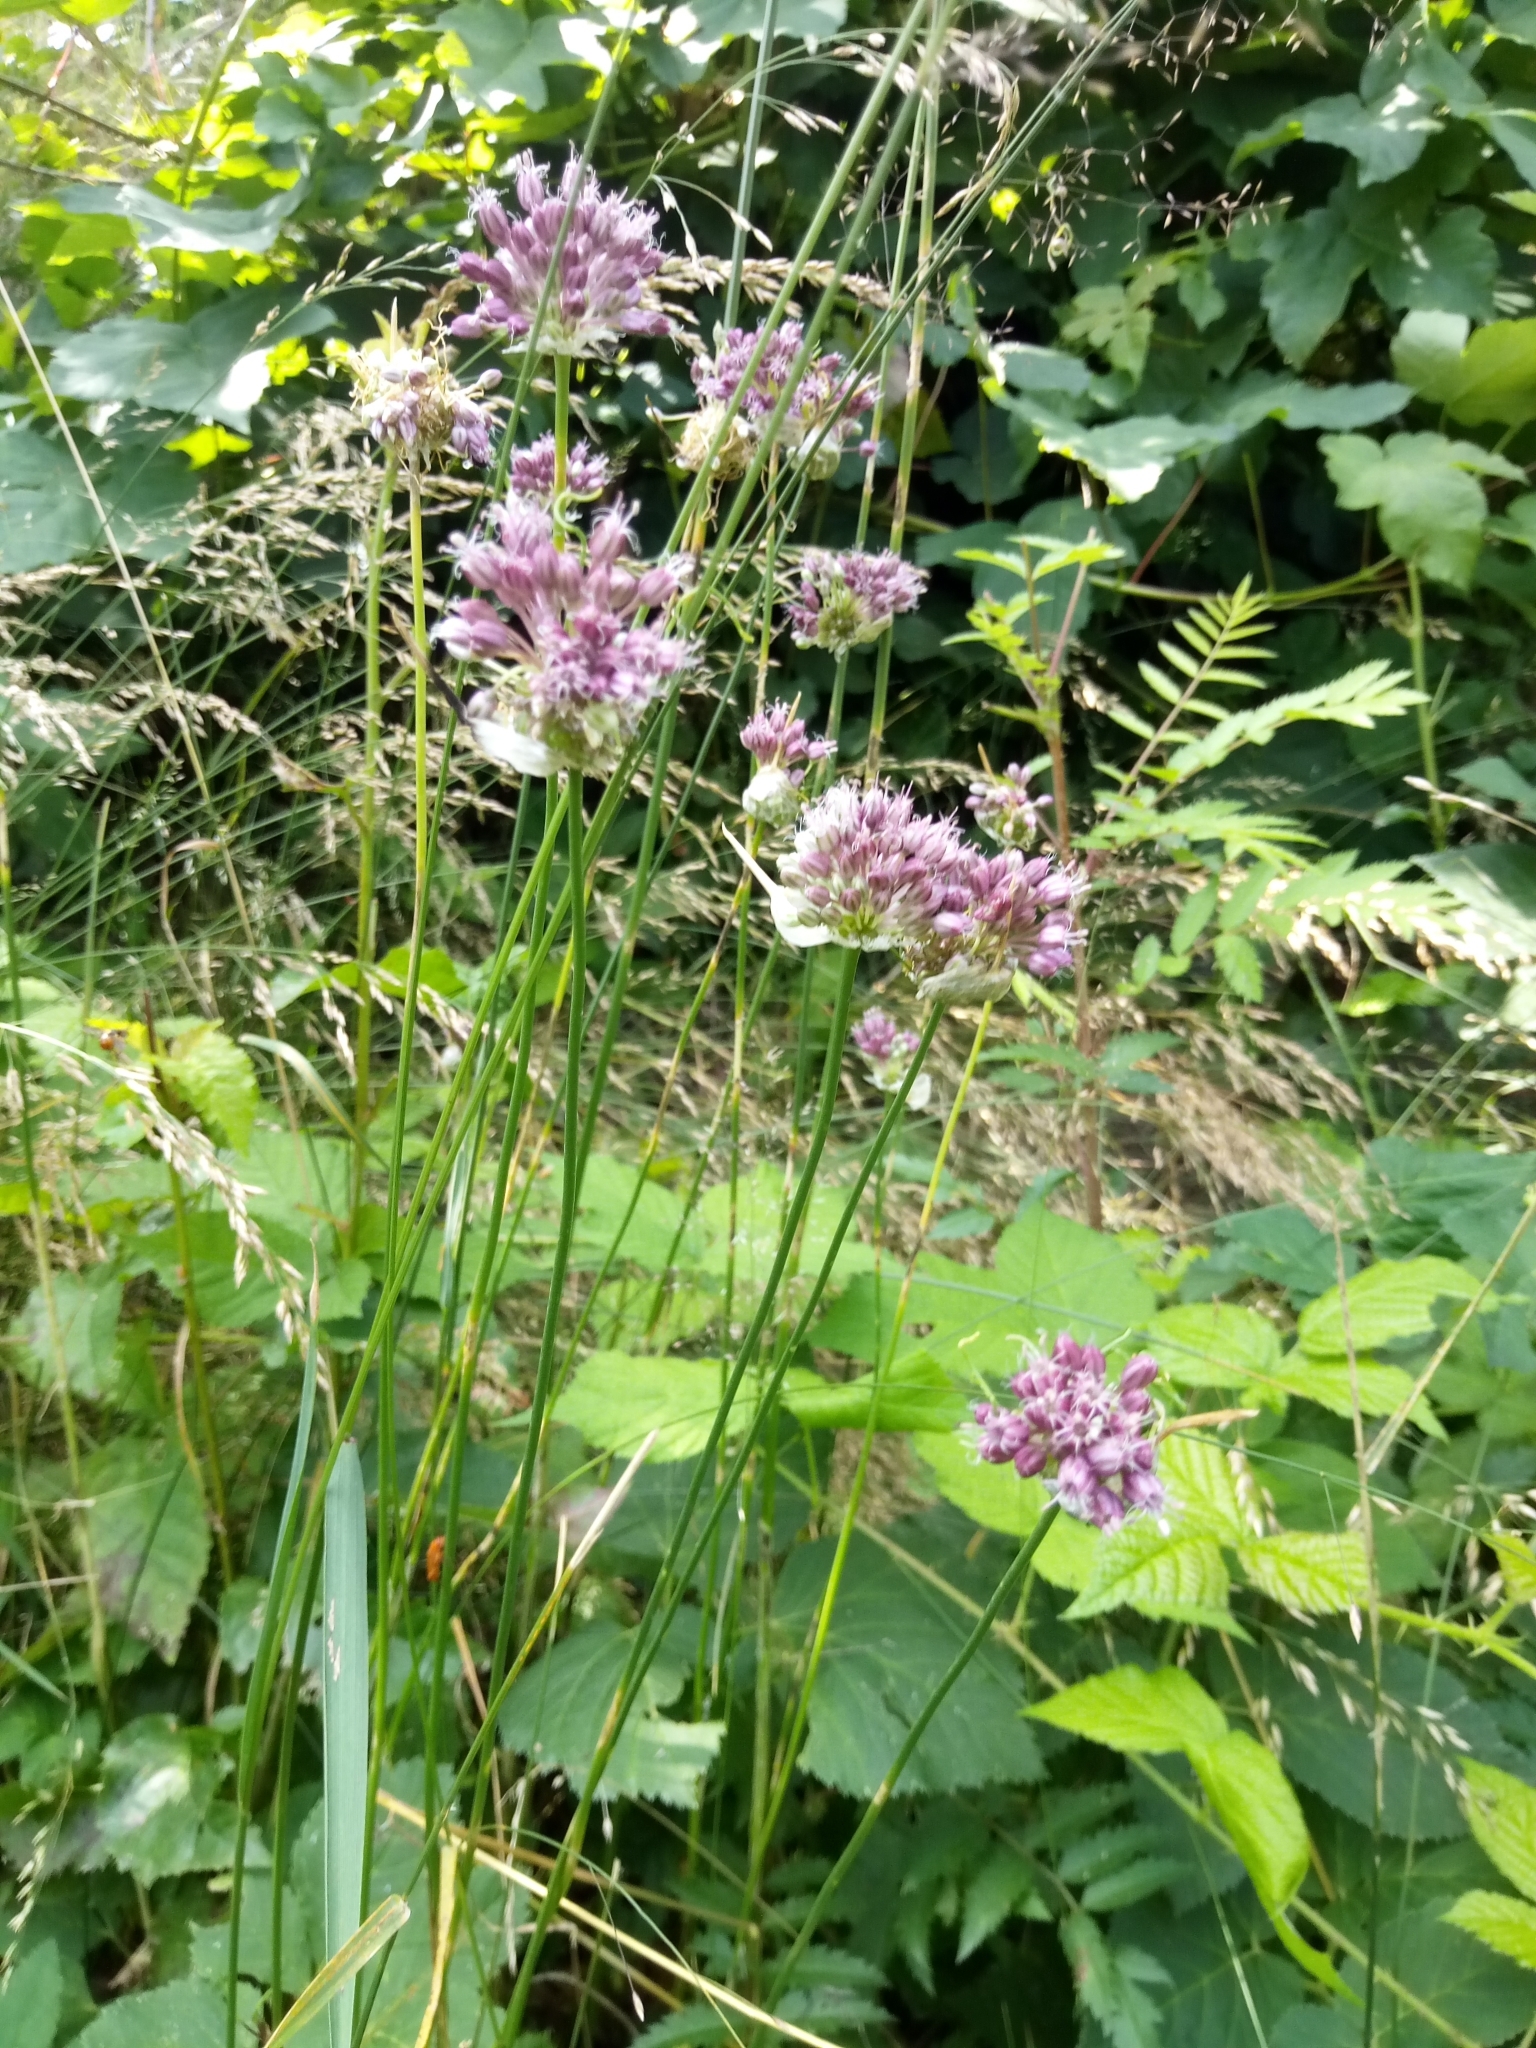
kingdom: Plantae
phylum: Tracheophyta
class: Liliopsida
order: Asparagales
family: Amaryllidaceae
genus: Allium
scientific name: Allium vineale
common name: Crow garlic
